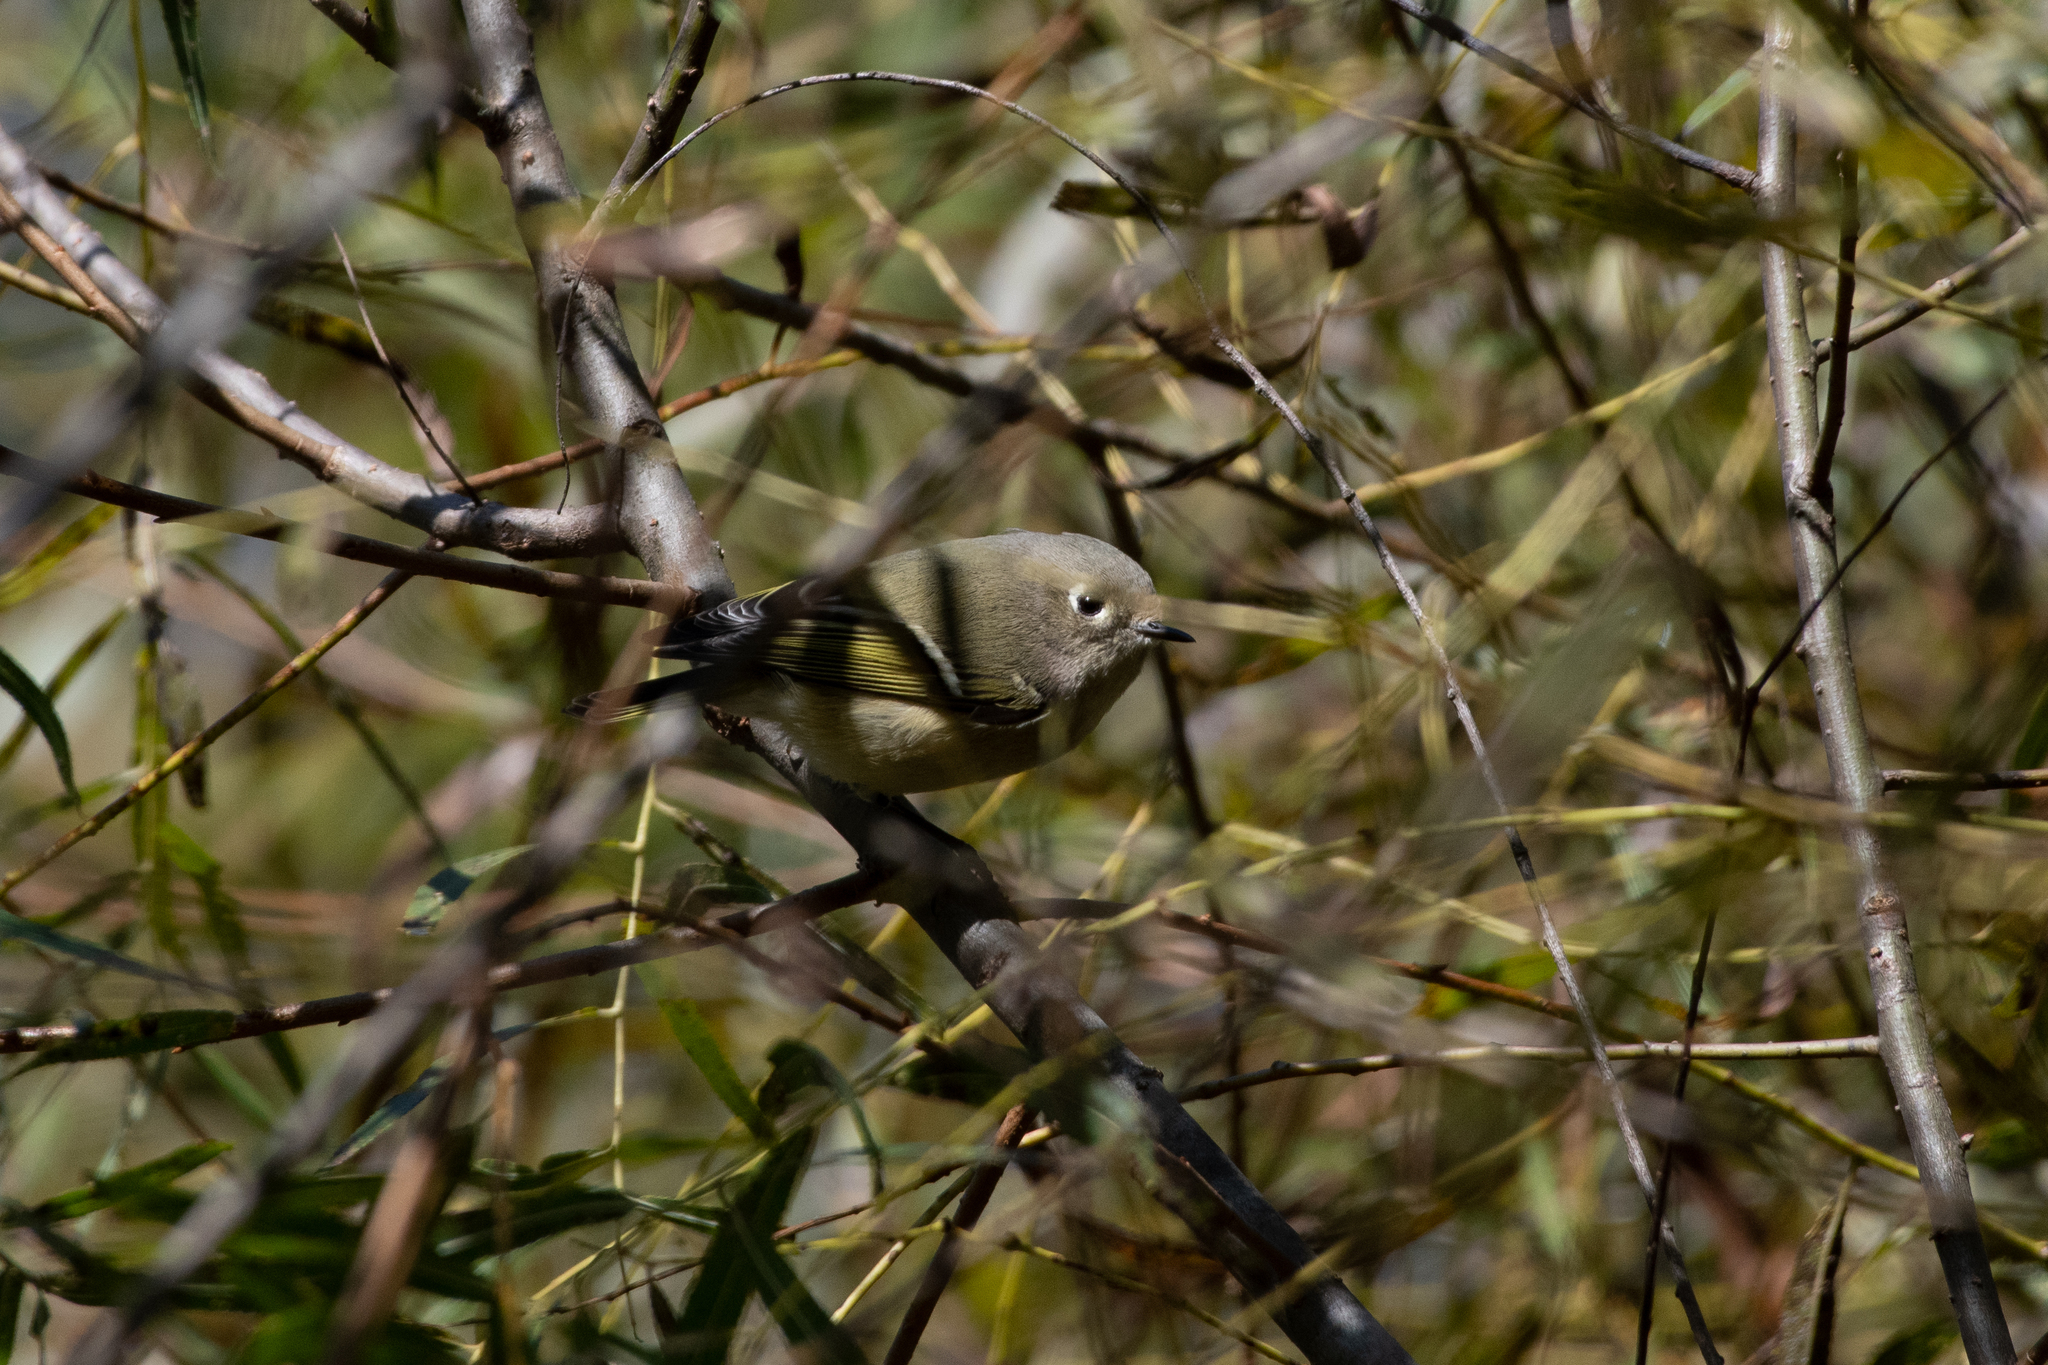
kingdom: Animalia
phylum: Chordata
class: Aves
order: Passeriformes
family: Regulidae
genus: Regulus
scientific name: Regulus calendula
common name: Ruby-crowned kinglet
